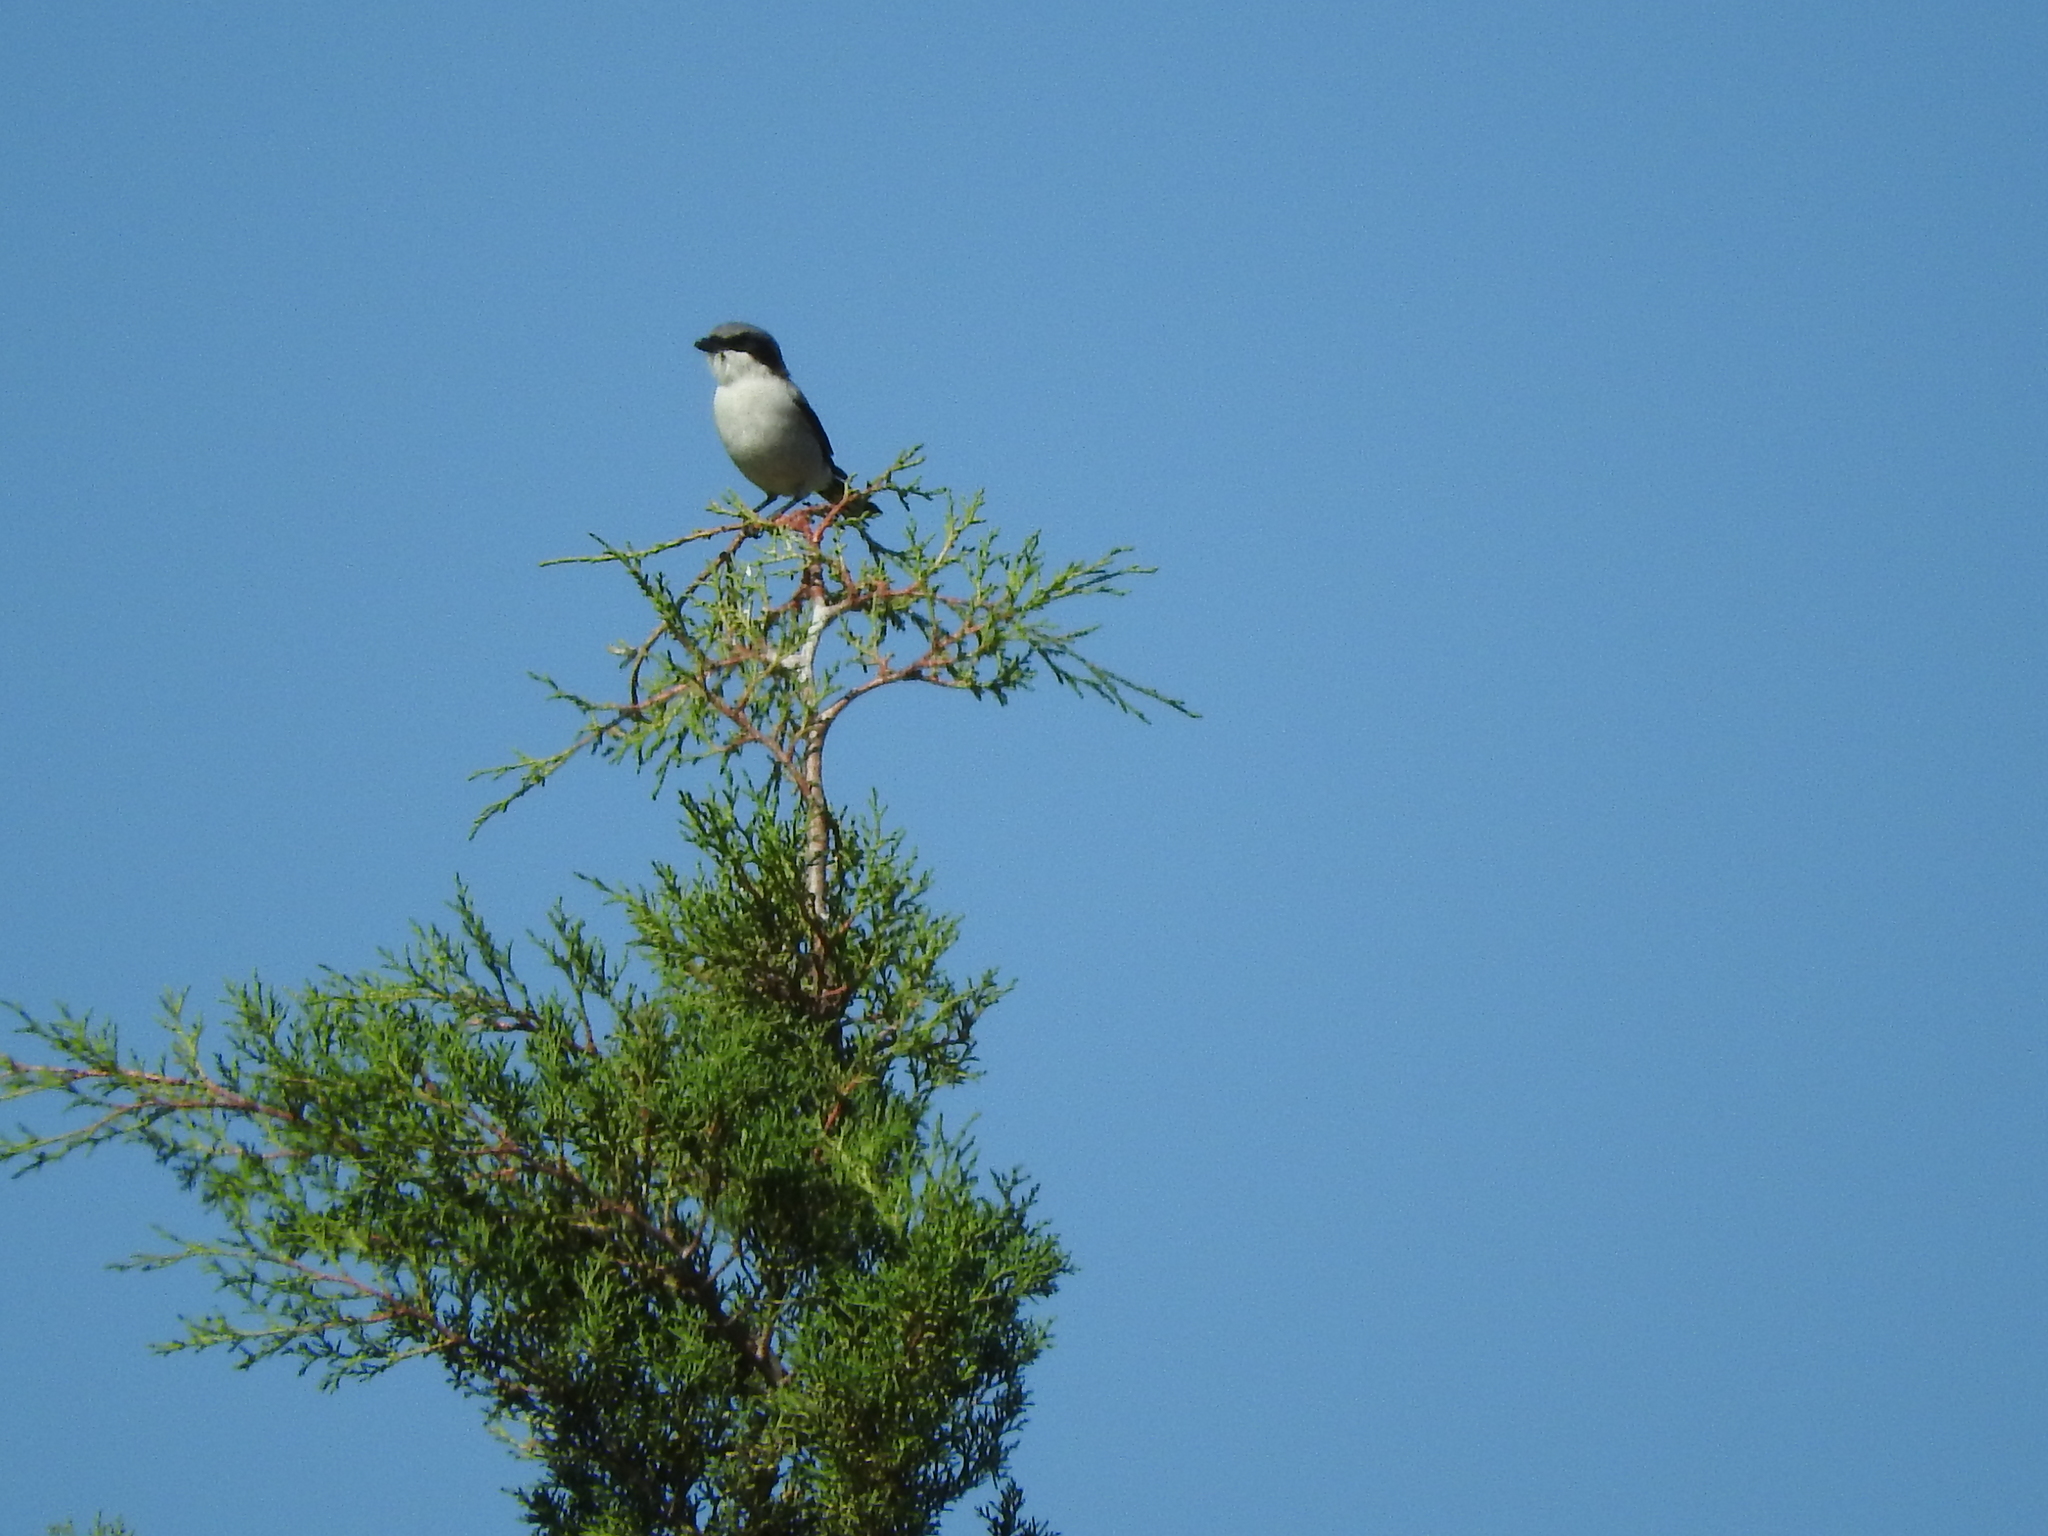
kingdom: Animalia
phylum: Chordata
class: Aves
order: Passeriformes
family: Laniidae
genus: Lanius
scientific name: Lanius ludovicianus
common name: Loggerhead shrike
